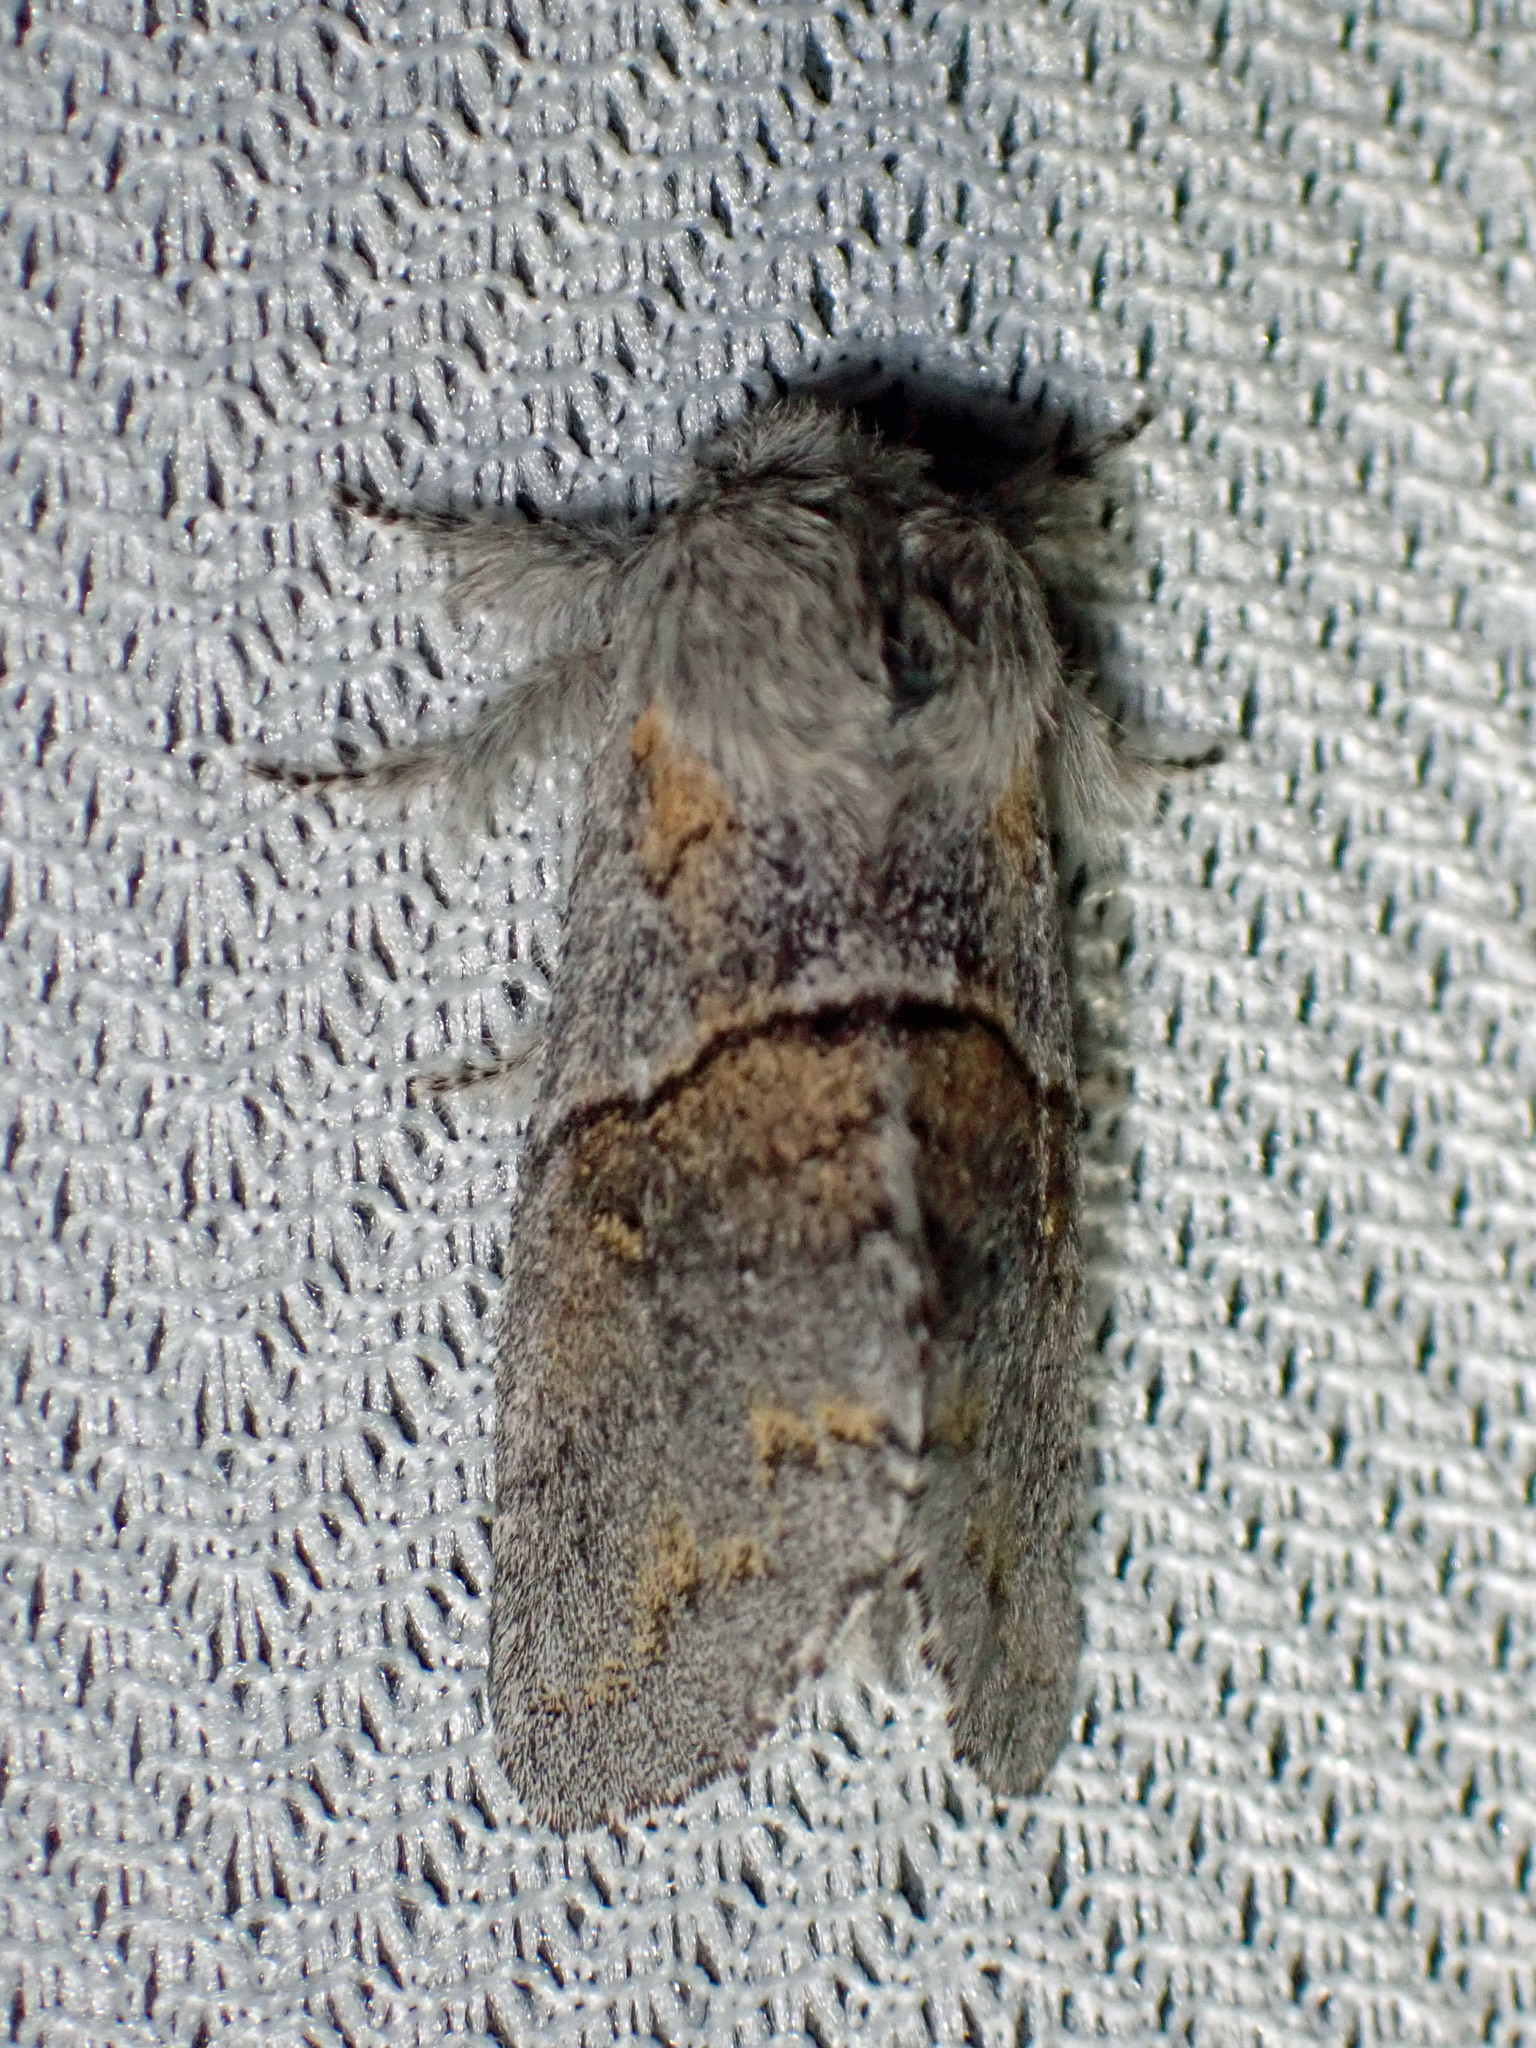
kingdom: Animalia
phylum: Arthropoda
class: Insecta
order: Lepidoptera
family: Notodontidae
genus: Gluphisia
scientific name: Gluphisia lintneri
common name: Lintner's gluphisia moth
